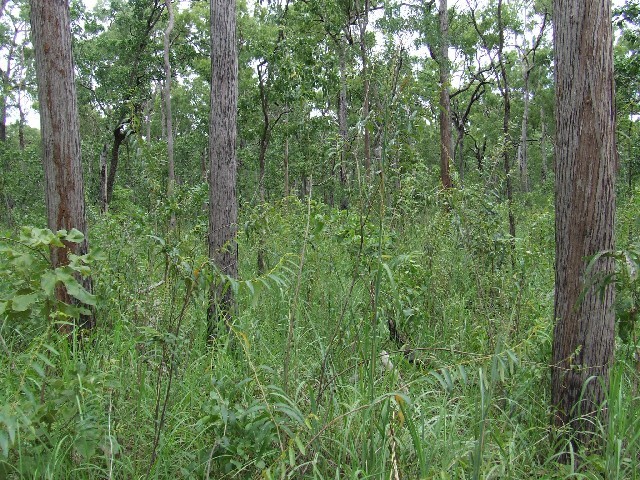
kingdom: Plantae
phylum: Tracheophyta
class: Magnoliopsida
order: Malvales
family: Malvaceae
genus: Helicteres
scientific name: Helicteres angustifolia
